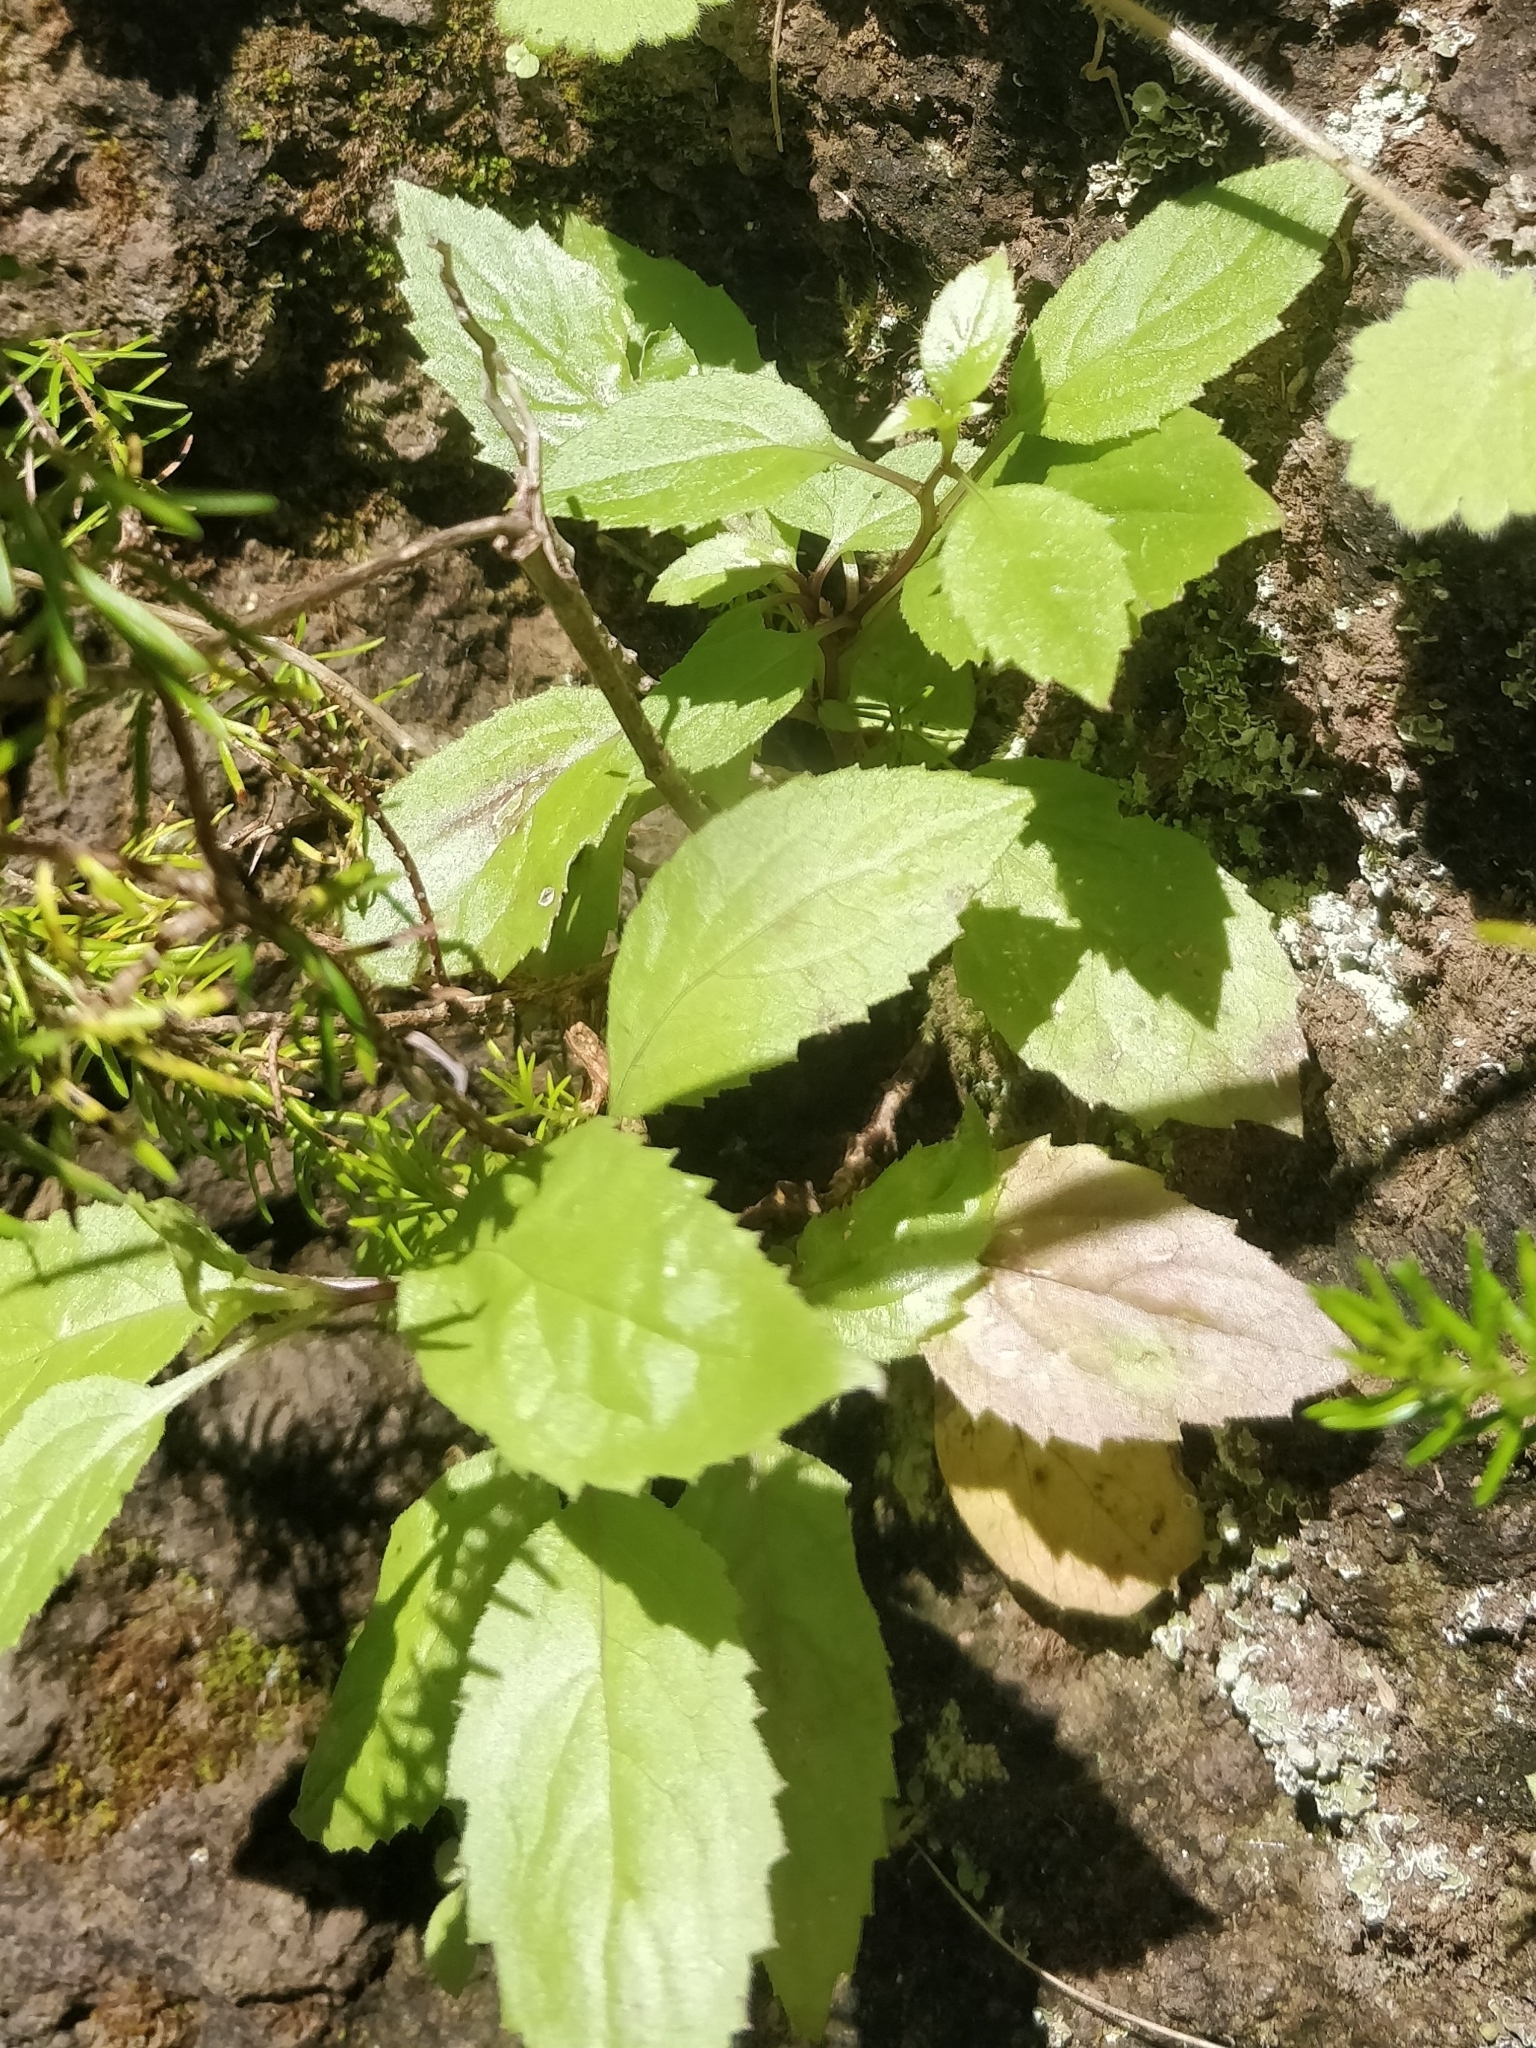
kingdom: Plantae
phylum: Tracheophyta
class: Magnoliopsida
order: Asterales
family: Campanulaceae
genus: Trachelium
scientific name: Trachelium caeruleum
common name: Throatwort
